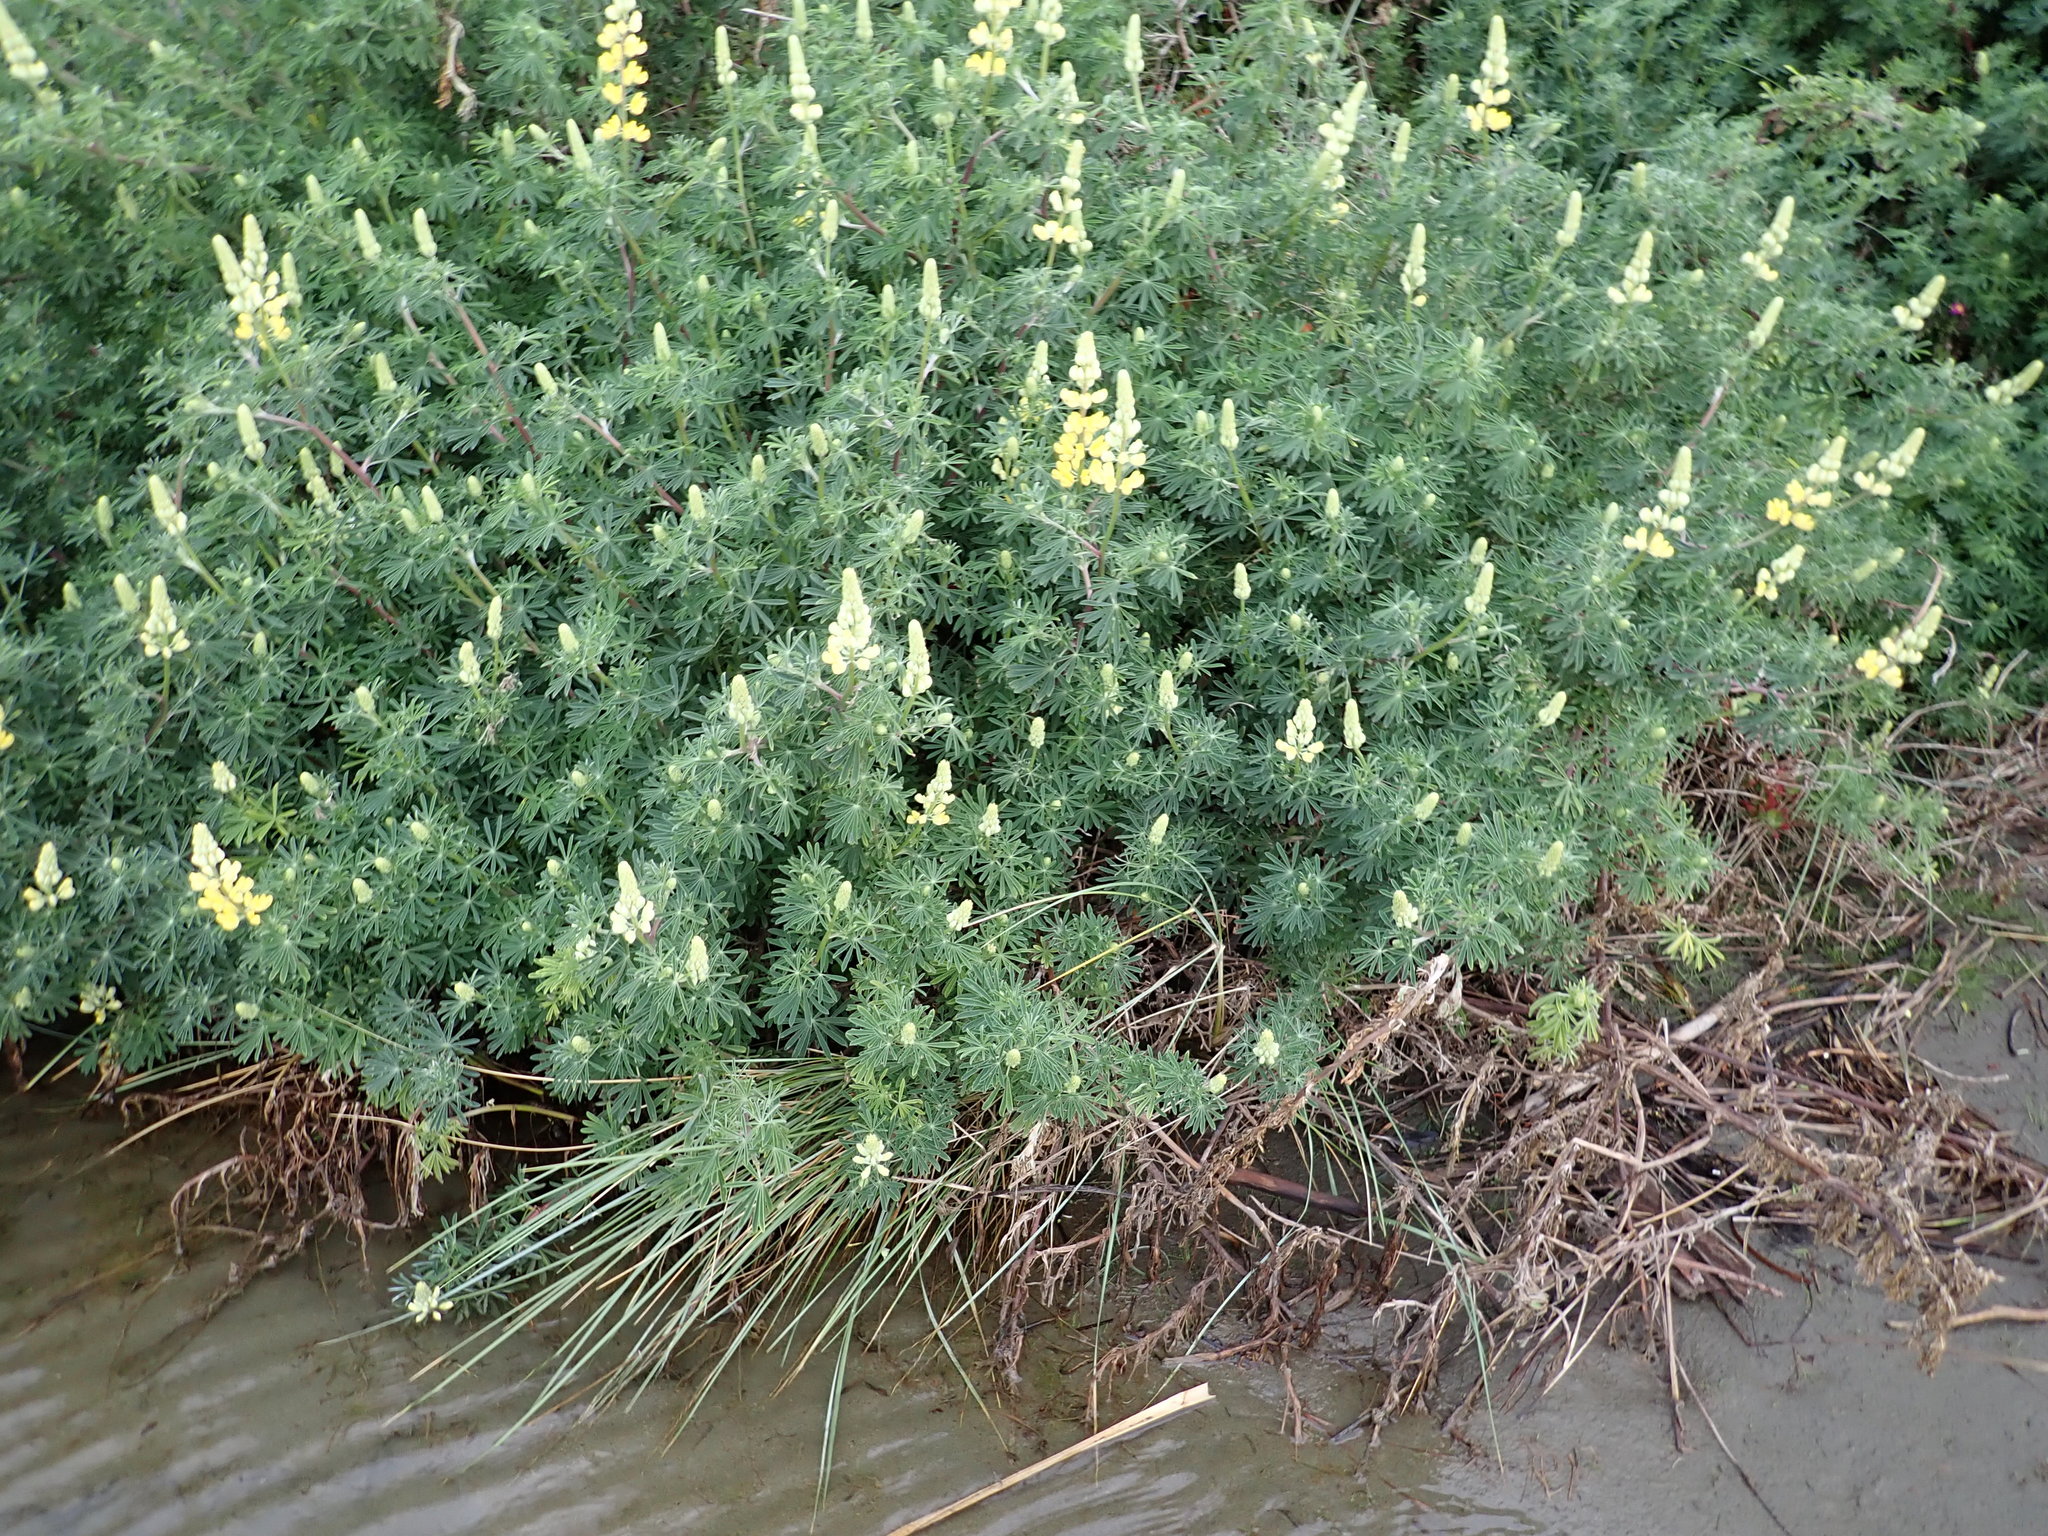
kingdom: Plantae
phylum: Tracheophyta
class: Magnoliopsida
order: Fabales
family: Fabaceae
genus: Lupinus
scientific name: Lupinus arboreus
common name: Yellow bush lupine
